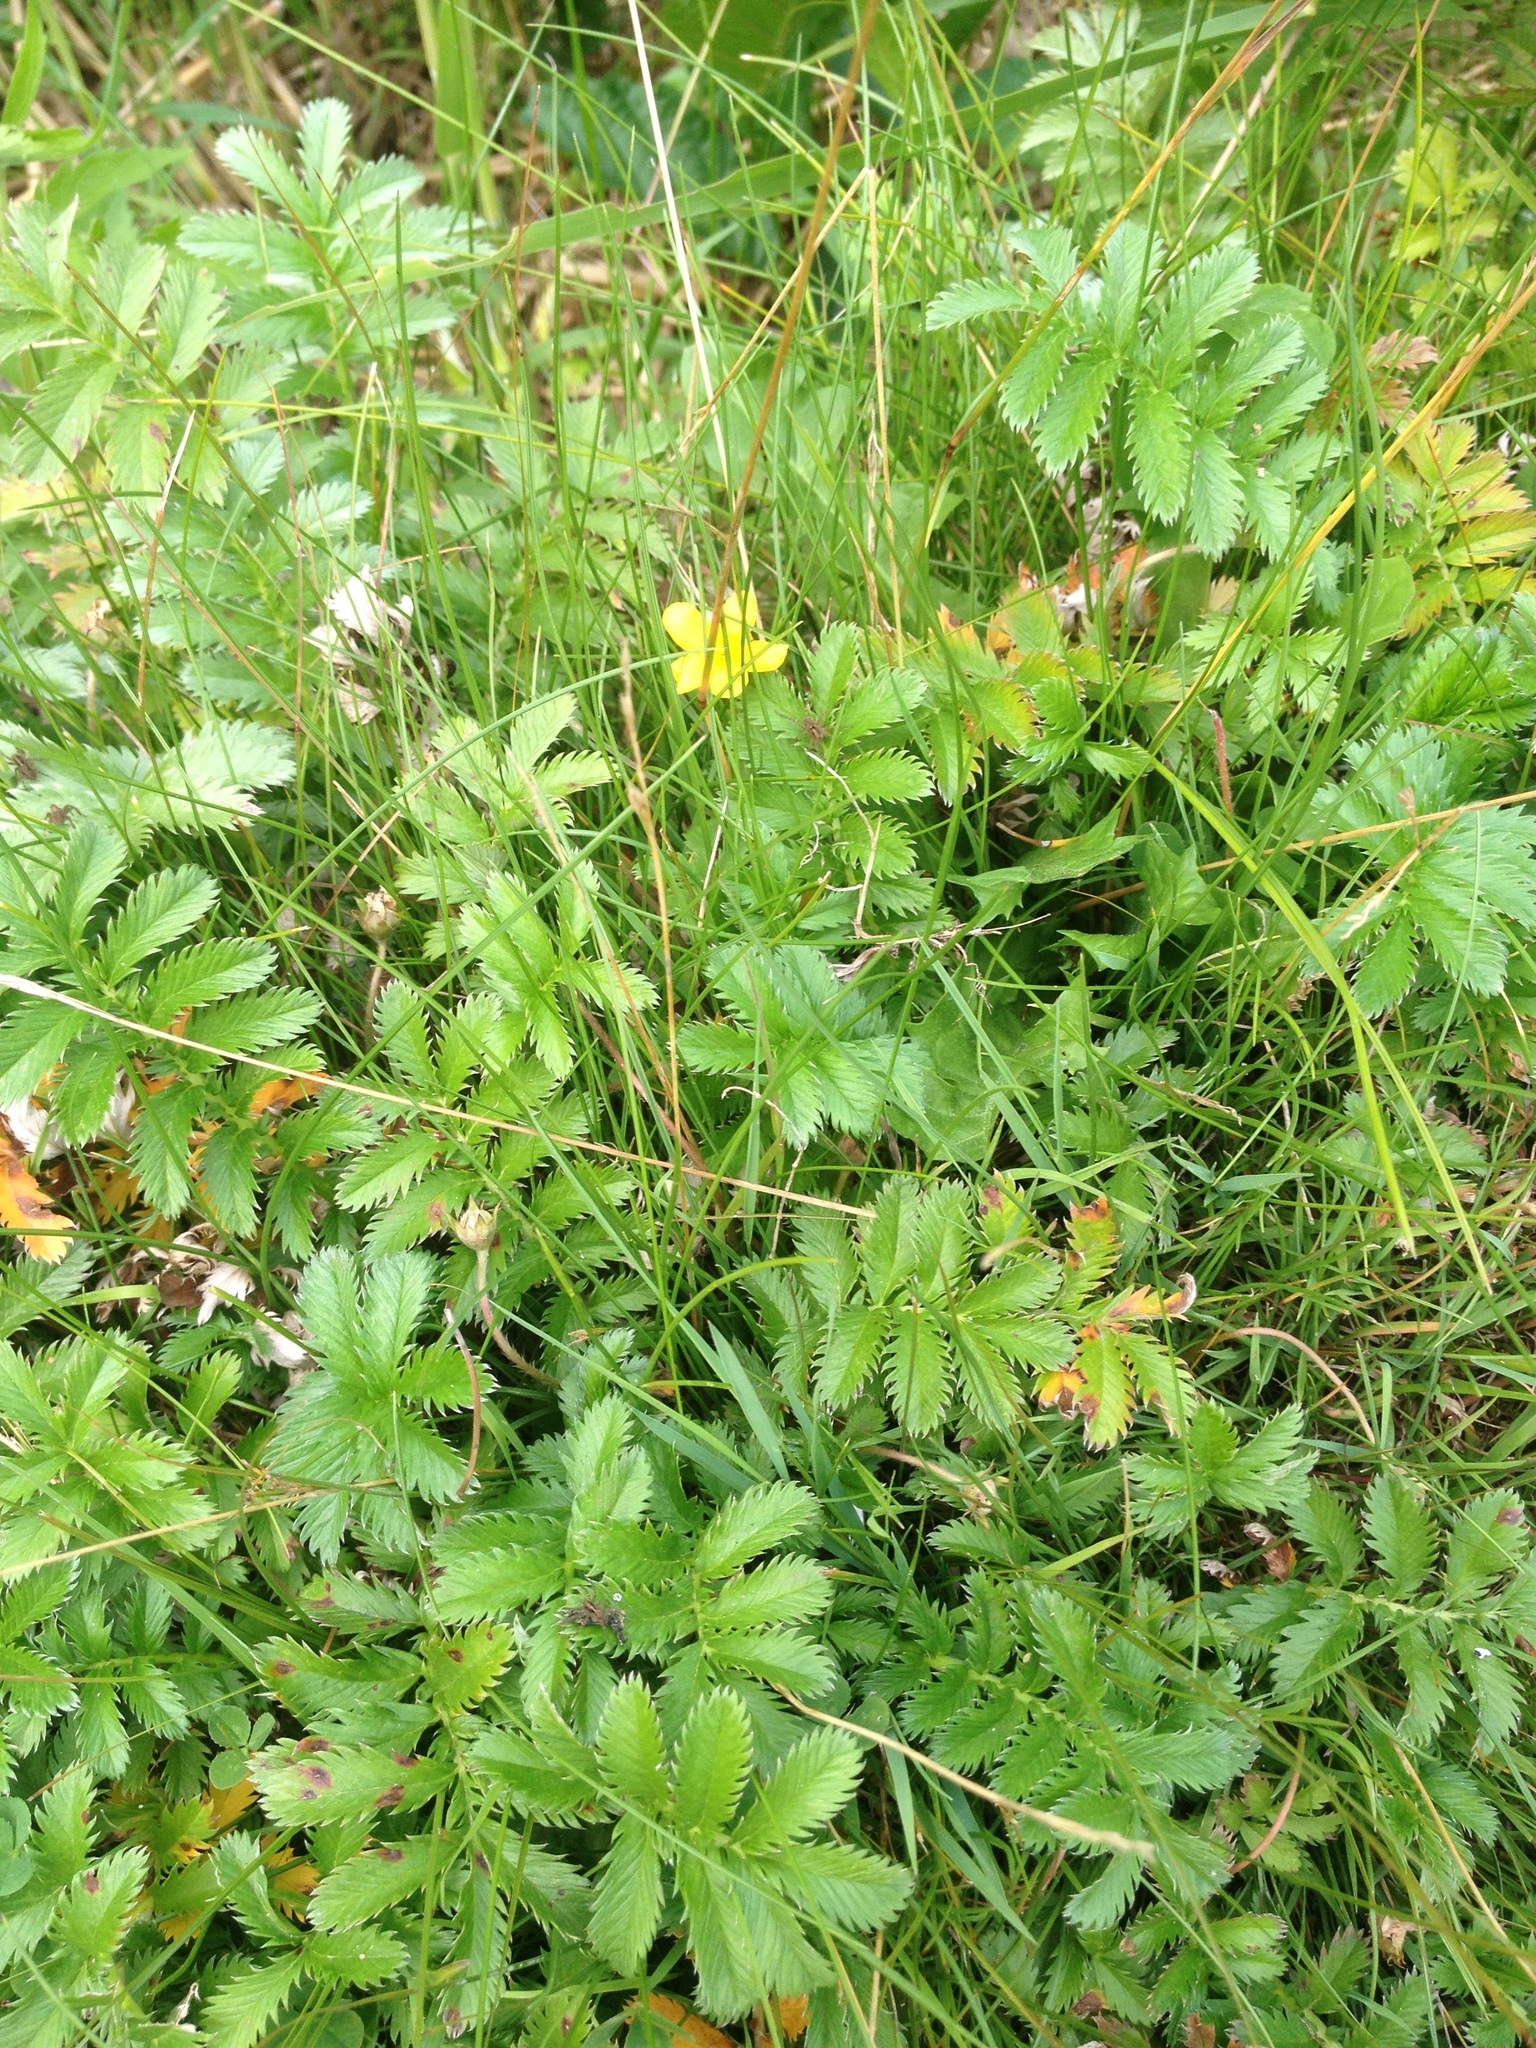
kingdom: Plantae
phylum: Tracheophyta
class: Magnoliopsida
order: Rosales
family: Rosaceae
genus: Argentina
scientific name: Argentina anserina
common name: Common silverweed
